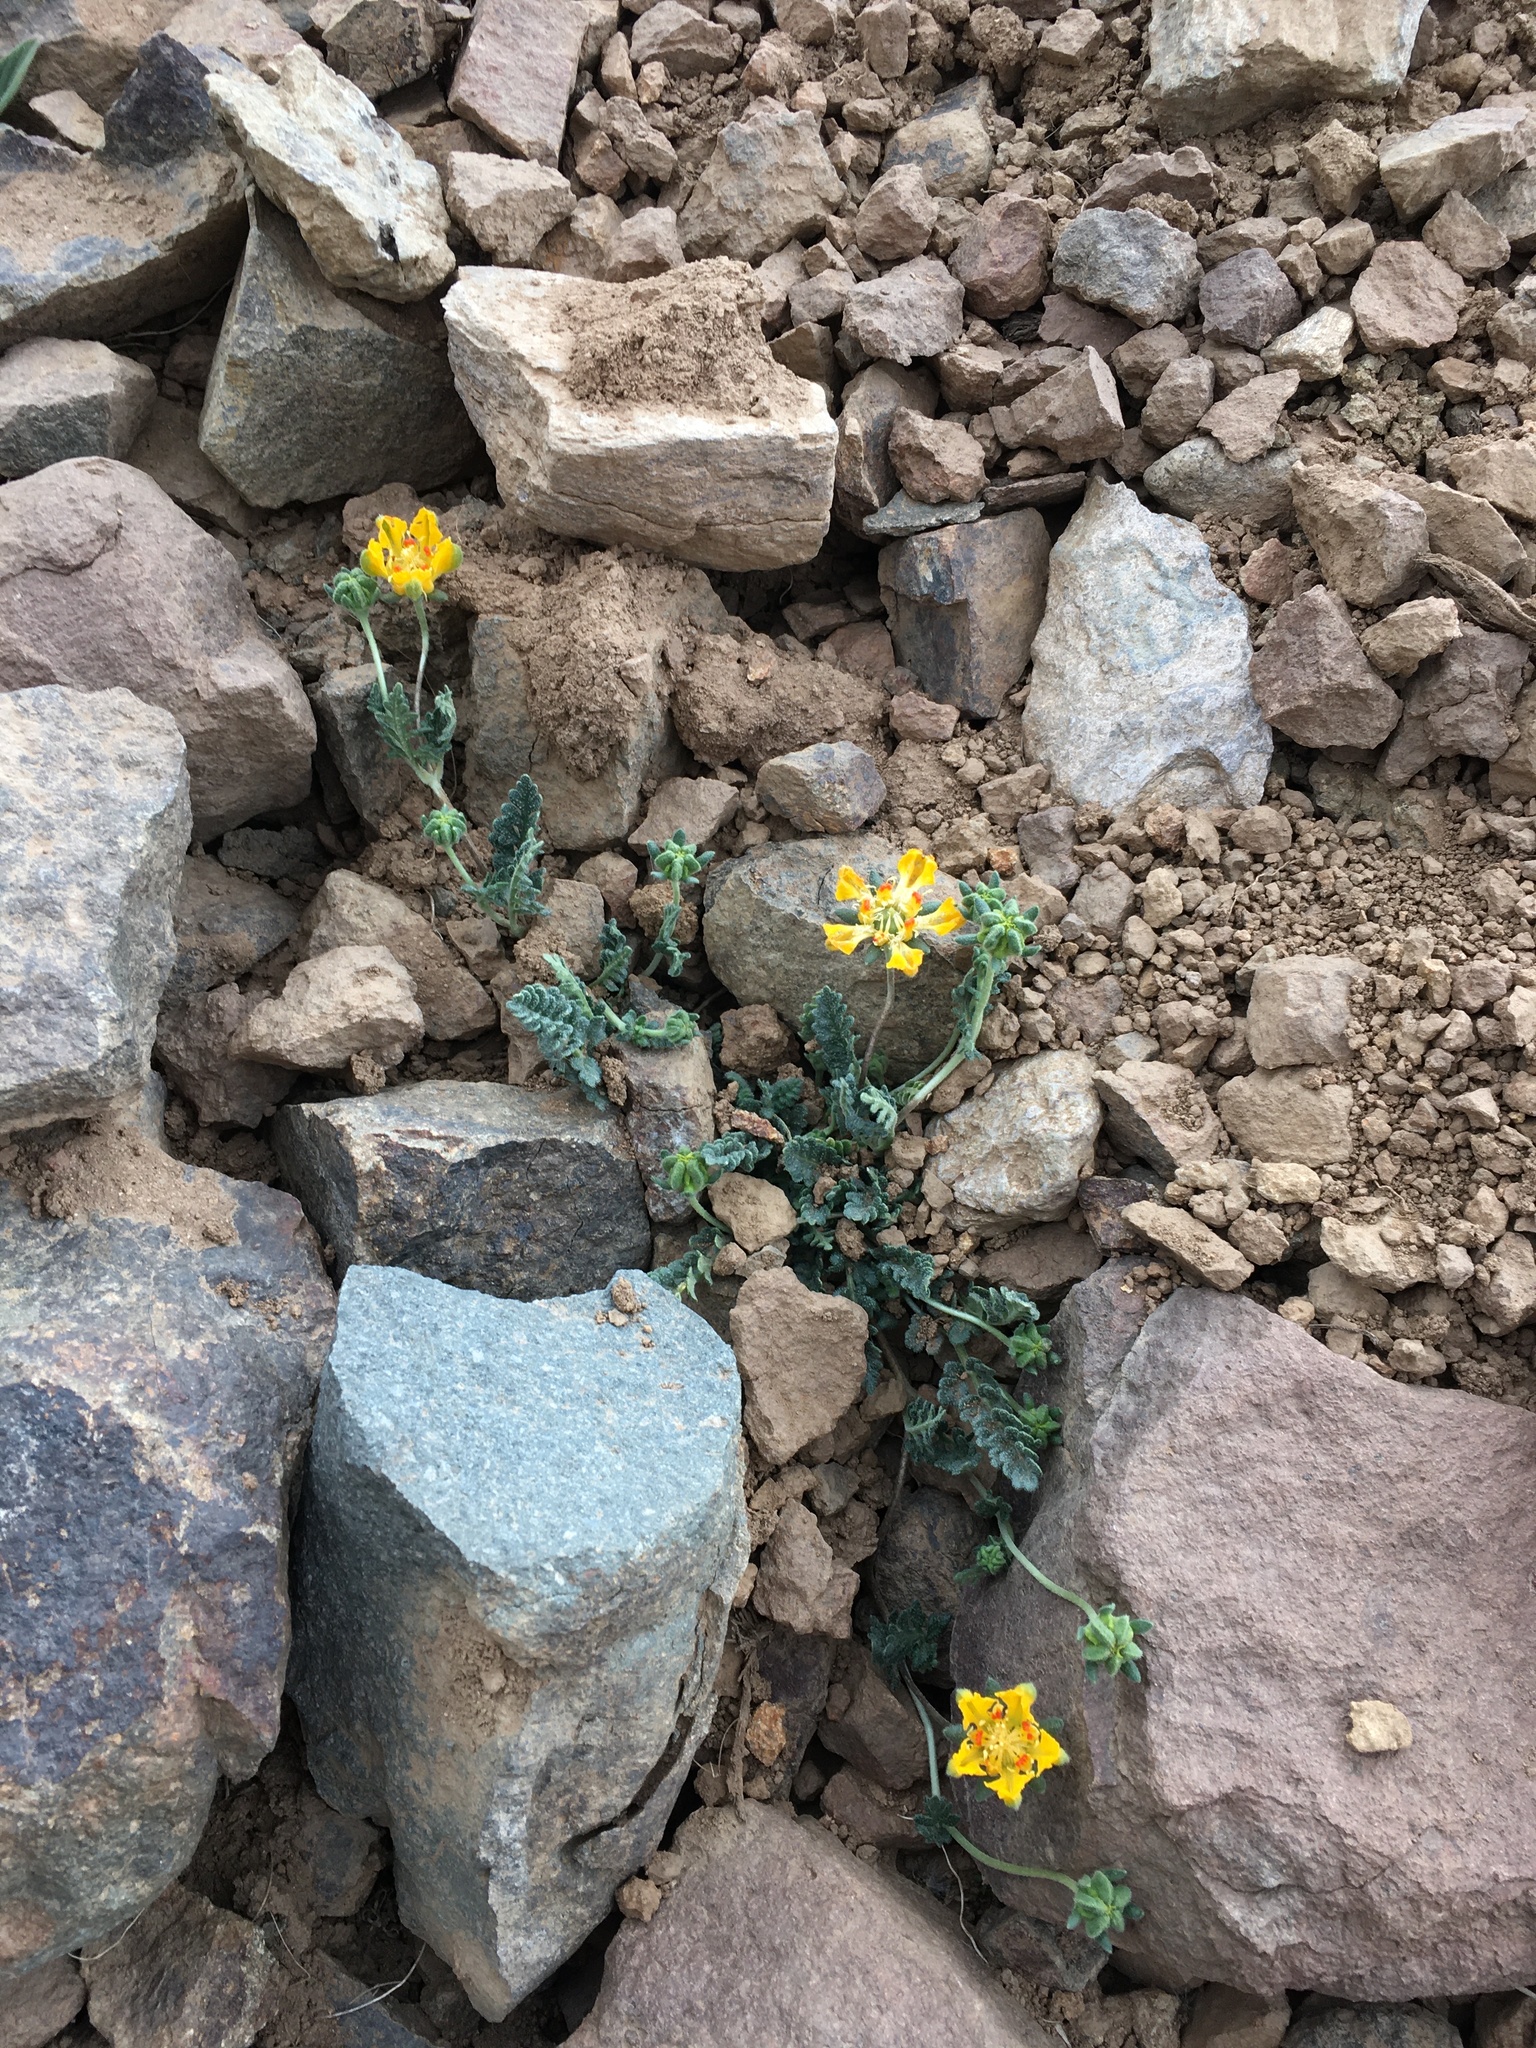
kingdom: Plantae
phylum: Tracheophyta
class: Magnoliopsida
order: Cornales
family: Loasaceae
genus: Loasa
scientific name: Loasa sigmoidea
